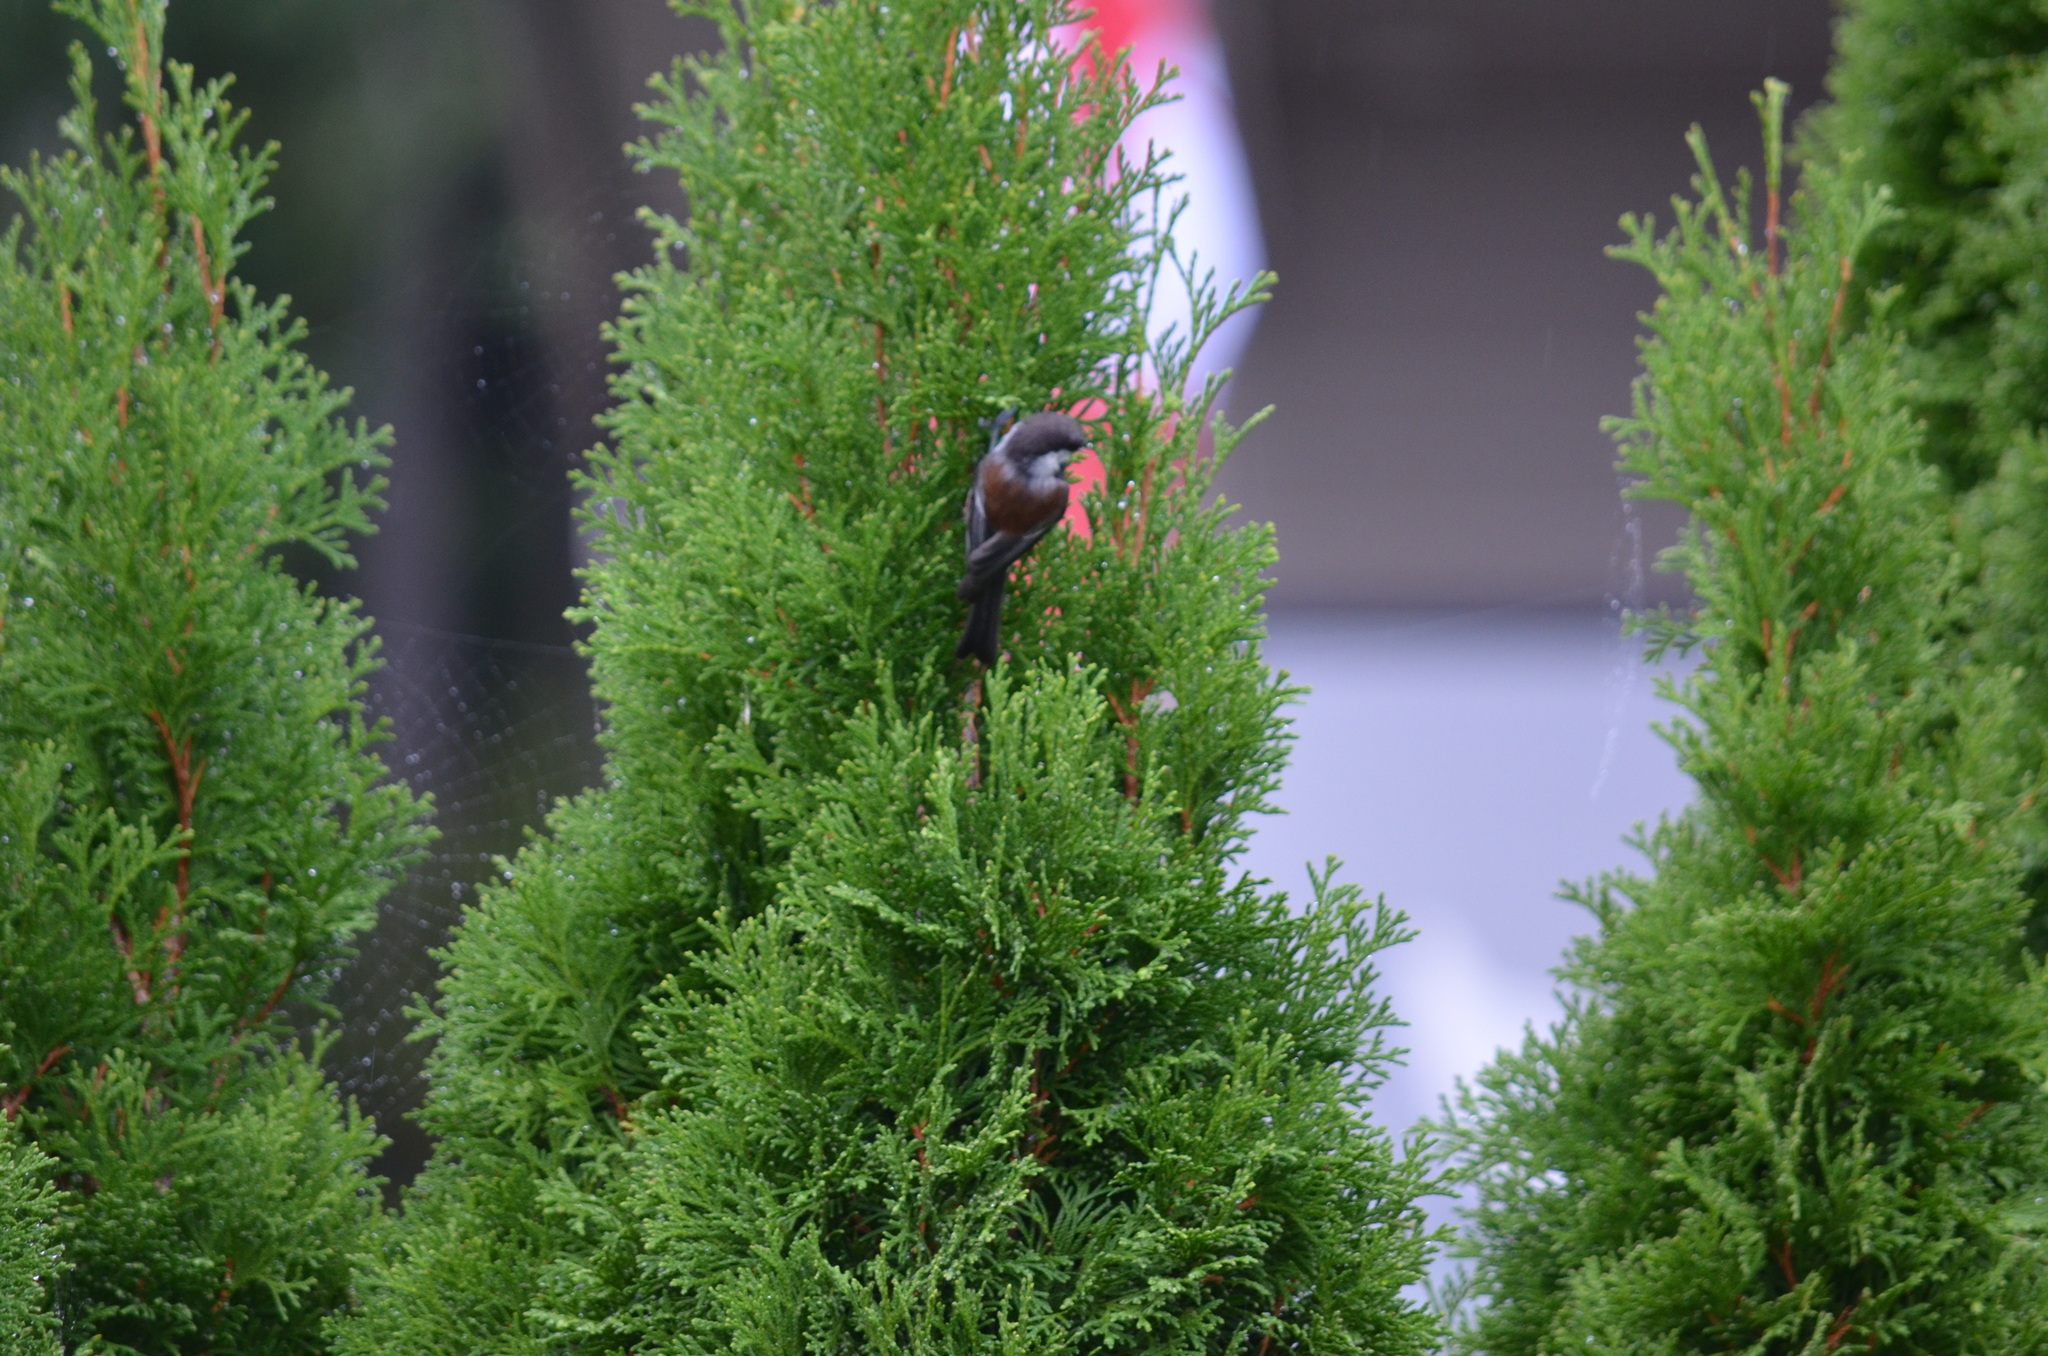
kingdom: Animalia
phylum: Chordata
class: Aves
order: Passeriformes
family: Paridae
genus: Poecile
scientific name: Poecile rufescens
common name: Chestnut-backed chickadee
